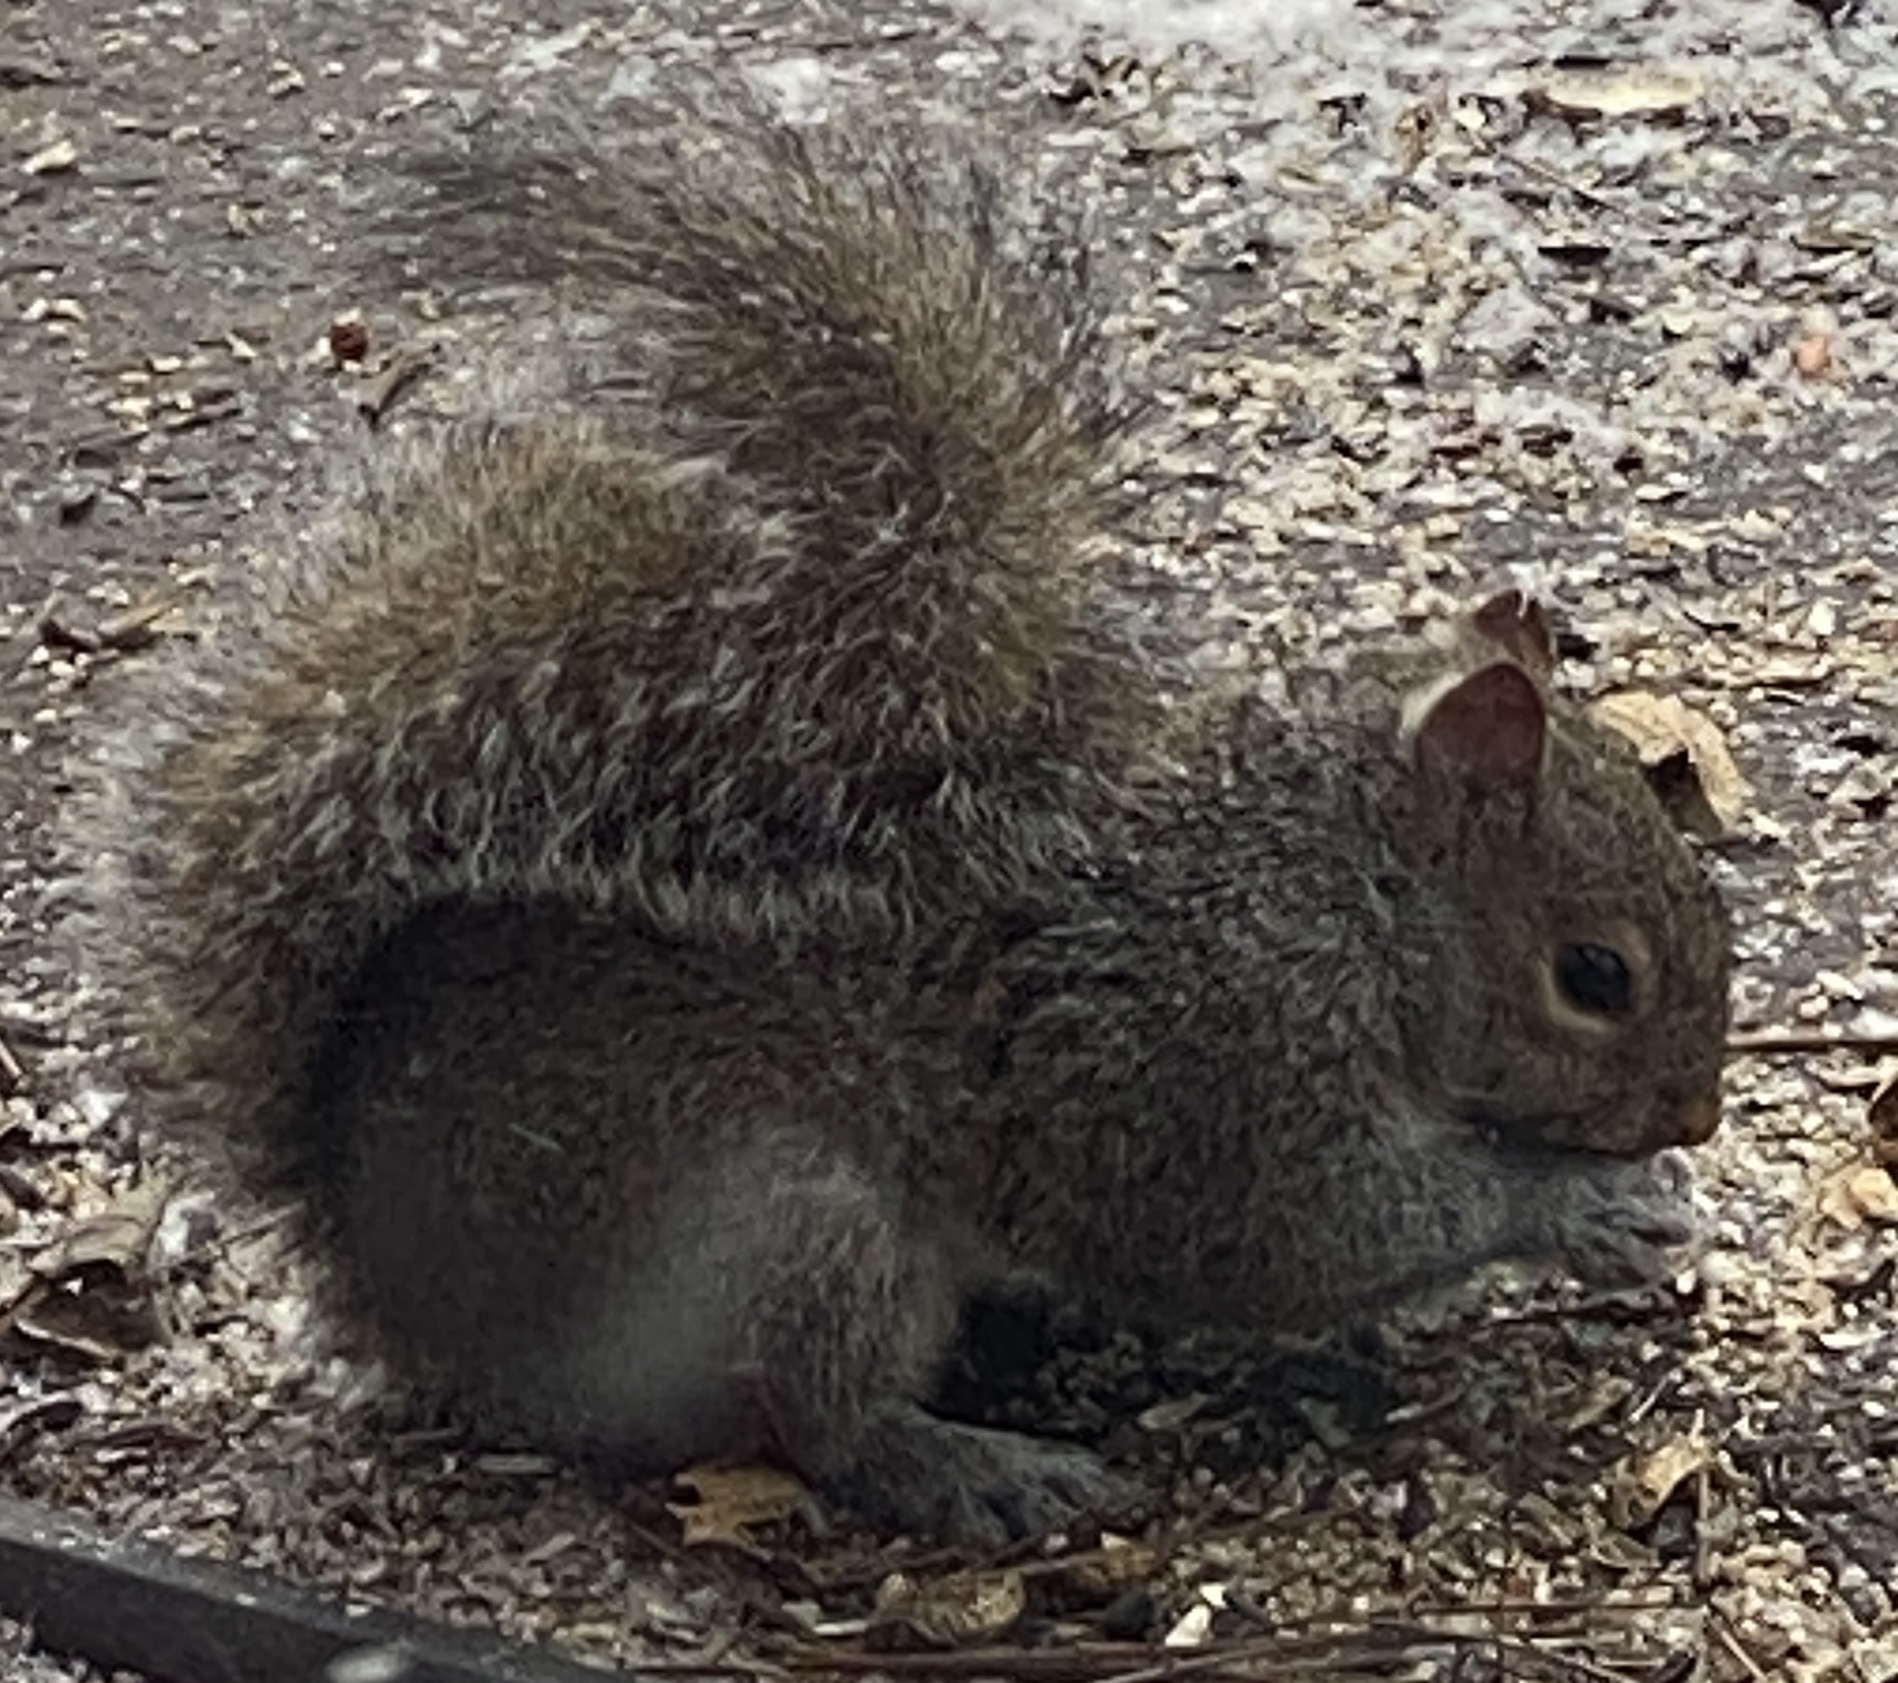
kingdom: Animalia
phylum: Chordata
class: Mammalia
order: Rodentia
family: Sciuridae
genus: Sciurus
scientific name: Sciurus carolinensis
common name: Eastern gray squirrel
